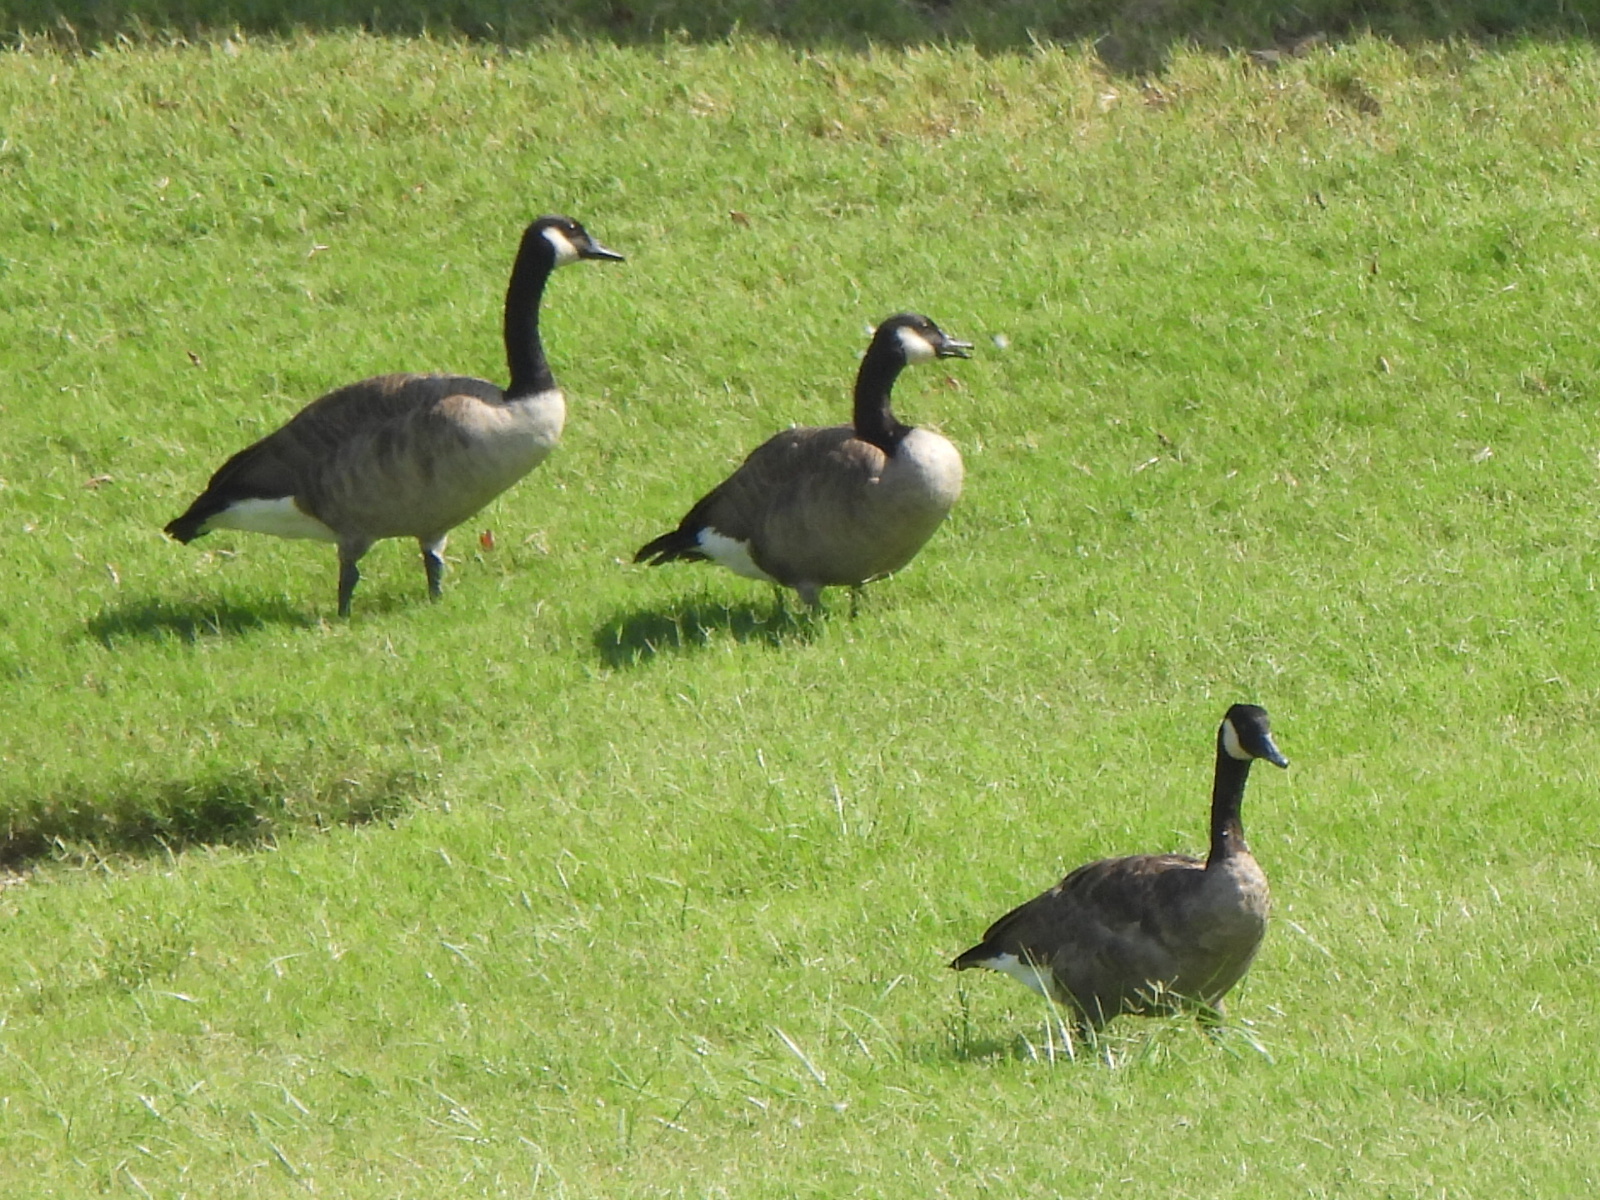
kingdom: Animalia
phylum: Chordata
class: Aves
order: Anseriformes
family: Anatidae
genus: Branta
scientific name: Branta canadensis
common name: Canada goose
